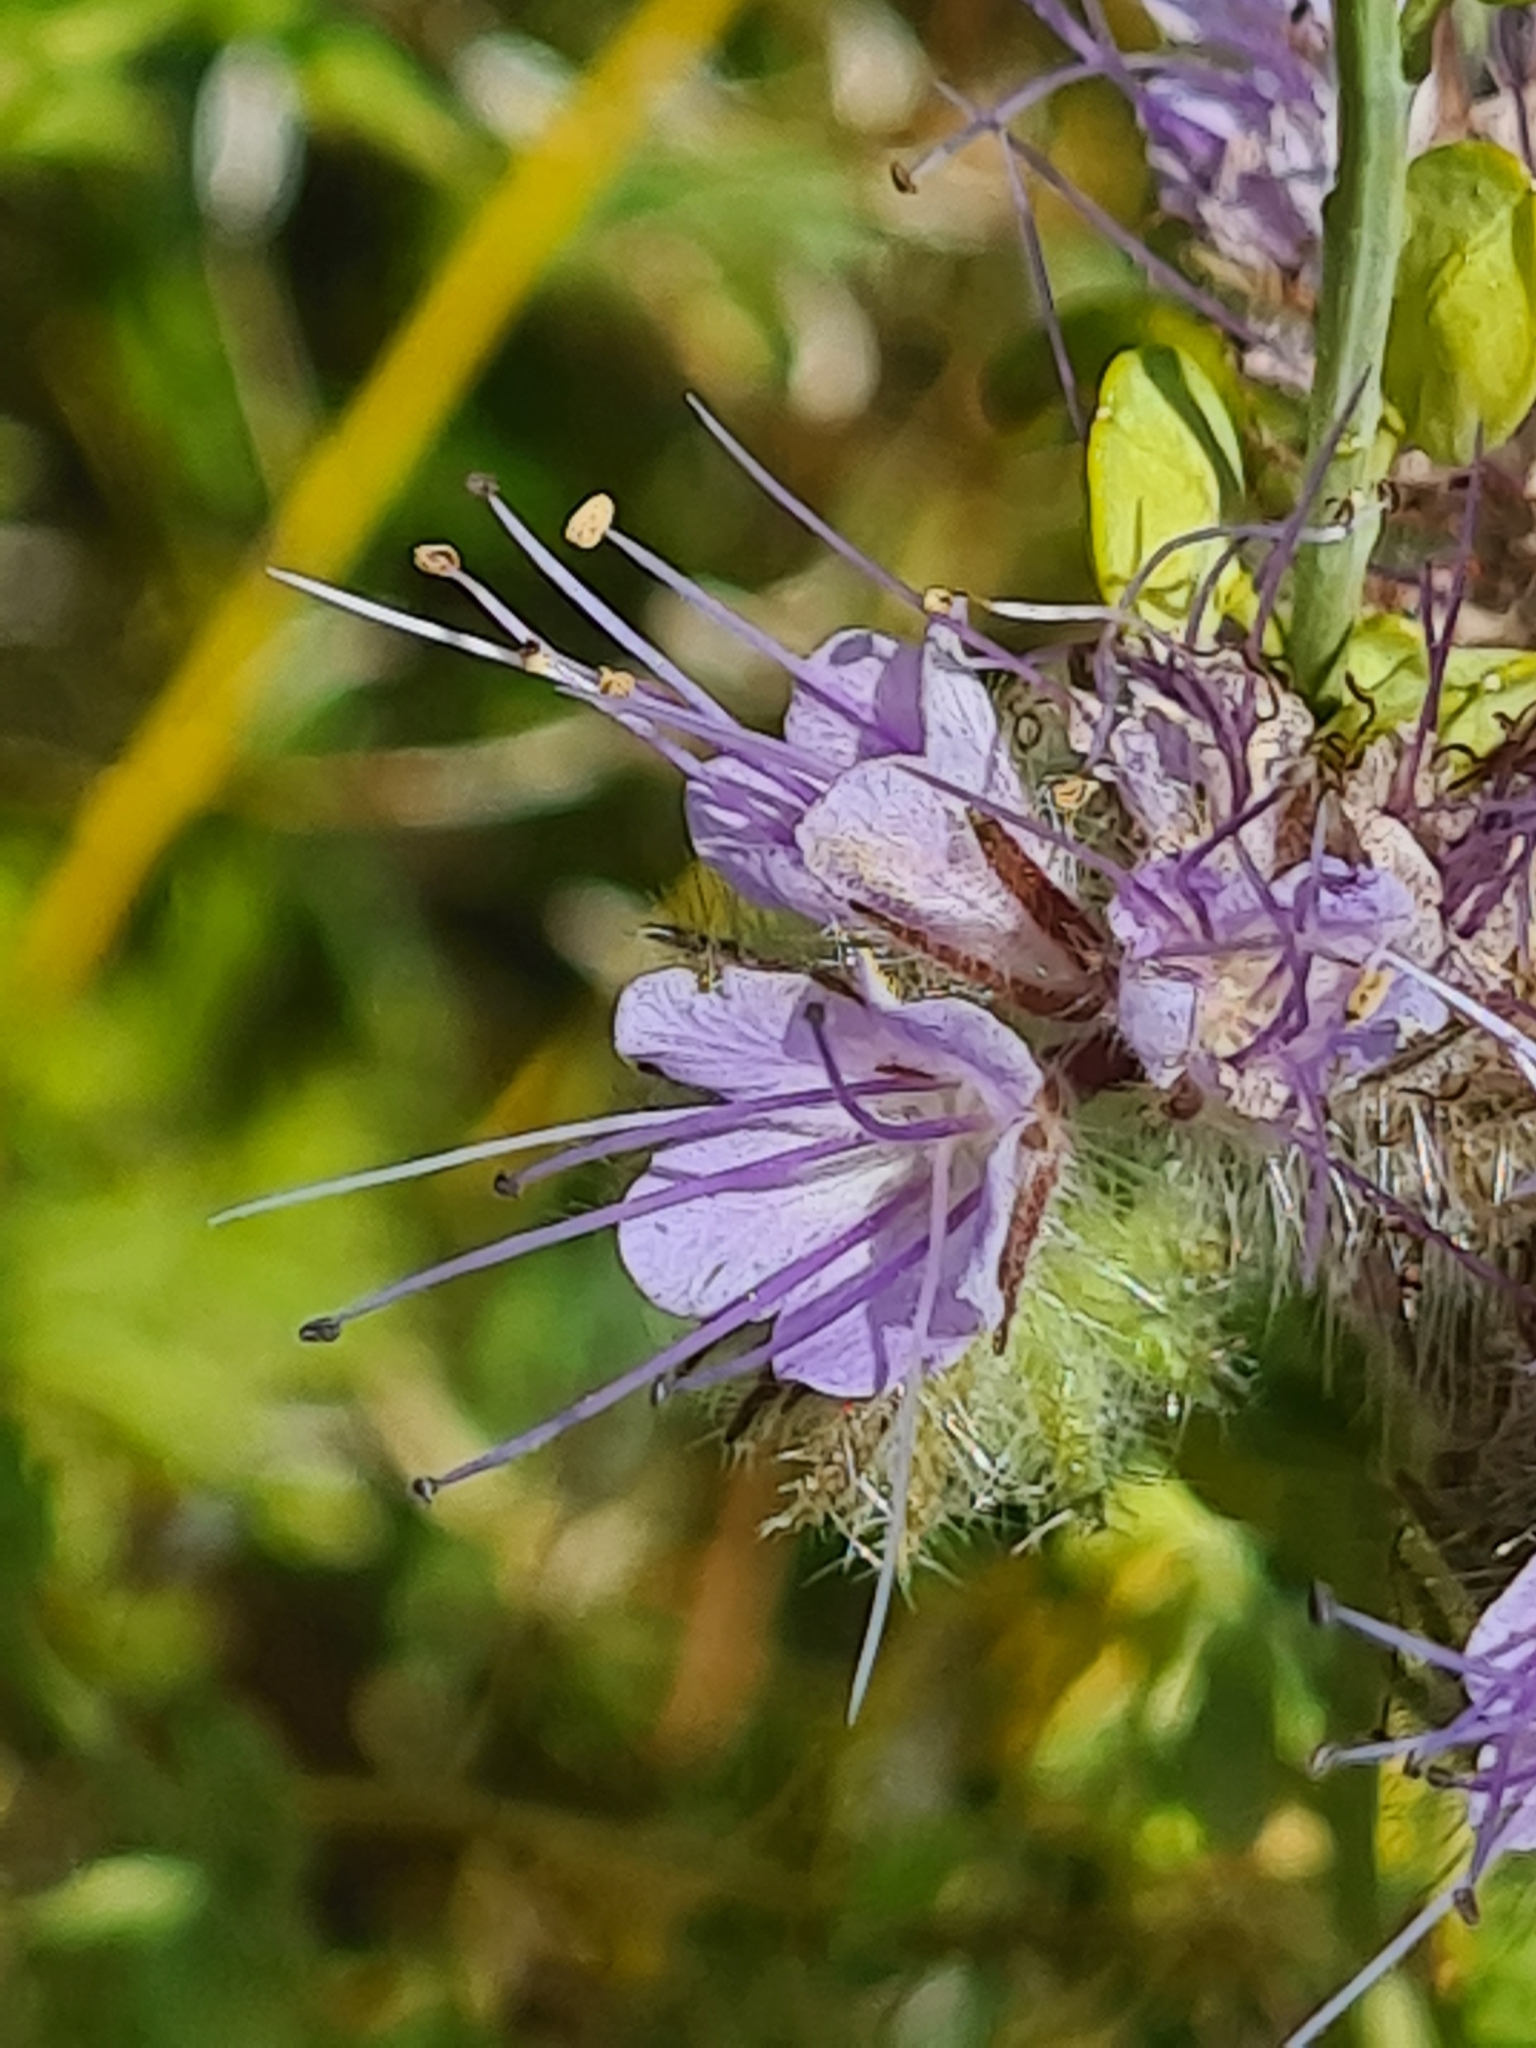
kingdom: Plantae
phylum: Tracheophyta
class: Magnoliopsida
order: Boraginales
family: Hydrophyllaceae
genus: Phacelia
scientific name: Phacelia tanacetifolia
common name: Phacelia
